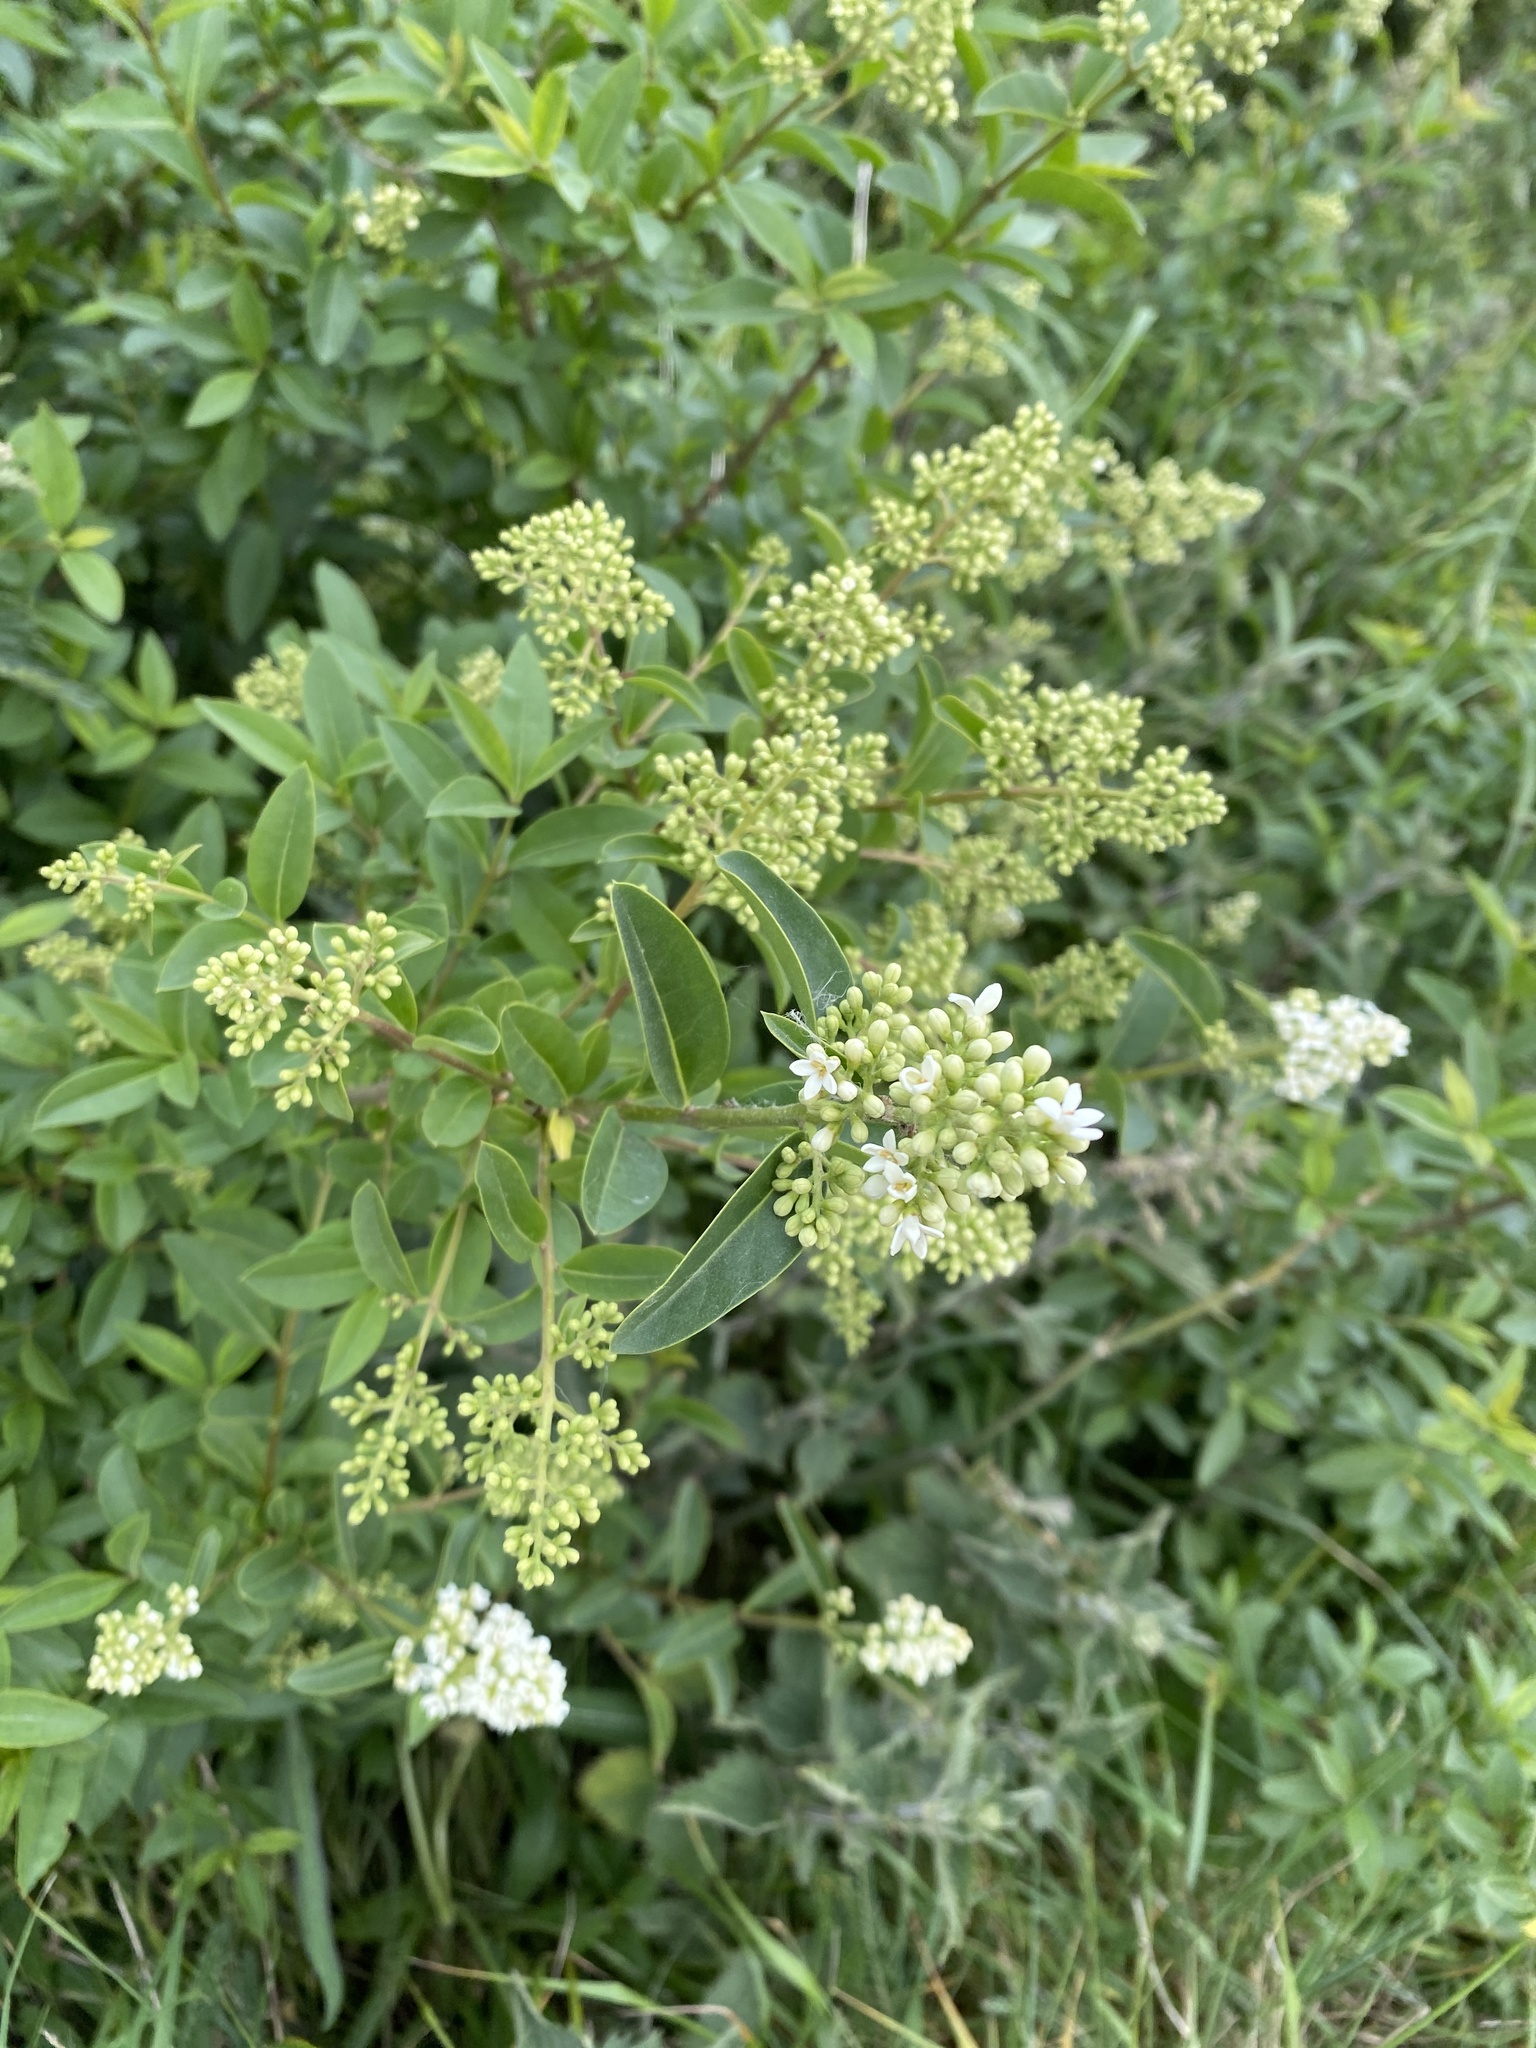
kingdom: Plantae
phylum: Tracheophyta
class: Magnoliopsida
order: Lamiales
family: Oleaceae
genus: Ligustrum
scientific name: Ligustrum vulgare
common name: Wild privet
